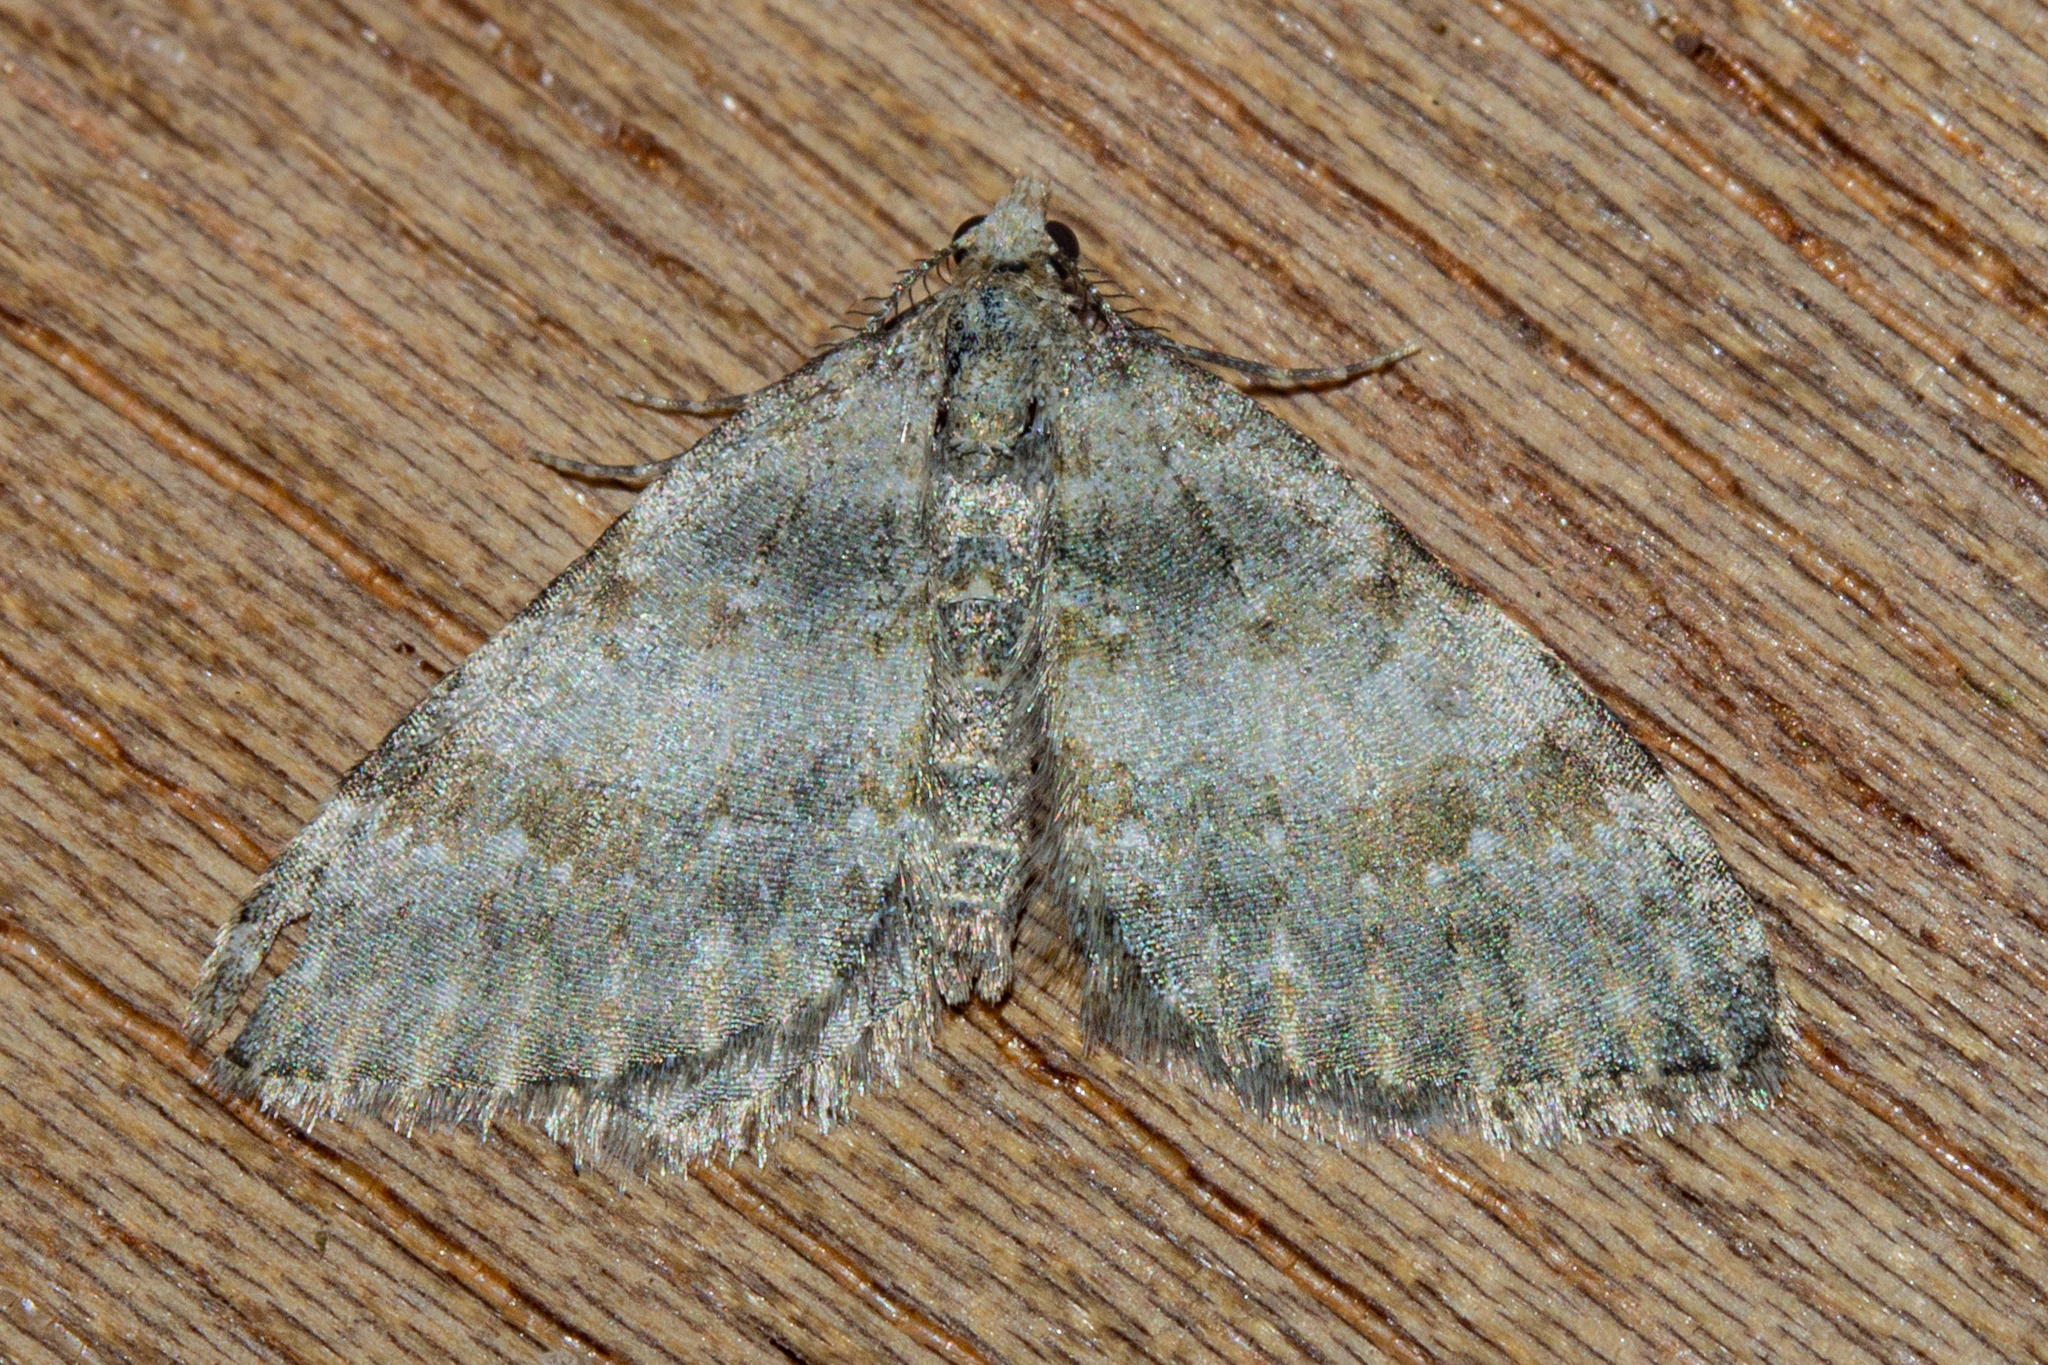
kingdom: Animalia
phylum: Arthropoda
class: Insecta
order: Lepidoptera
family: Geometridae
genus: Helastia
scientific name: Helastia christinae
